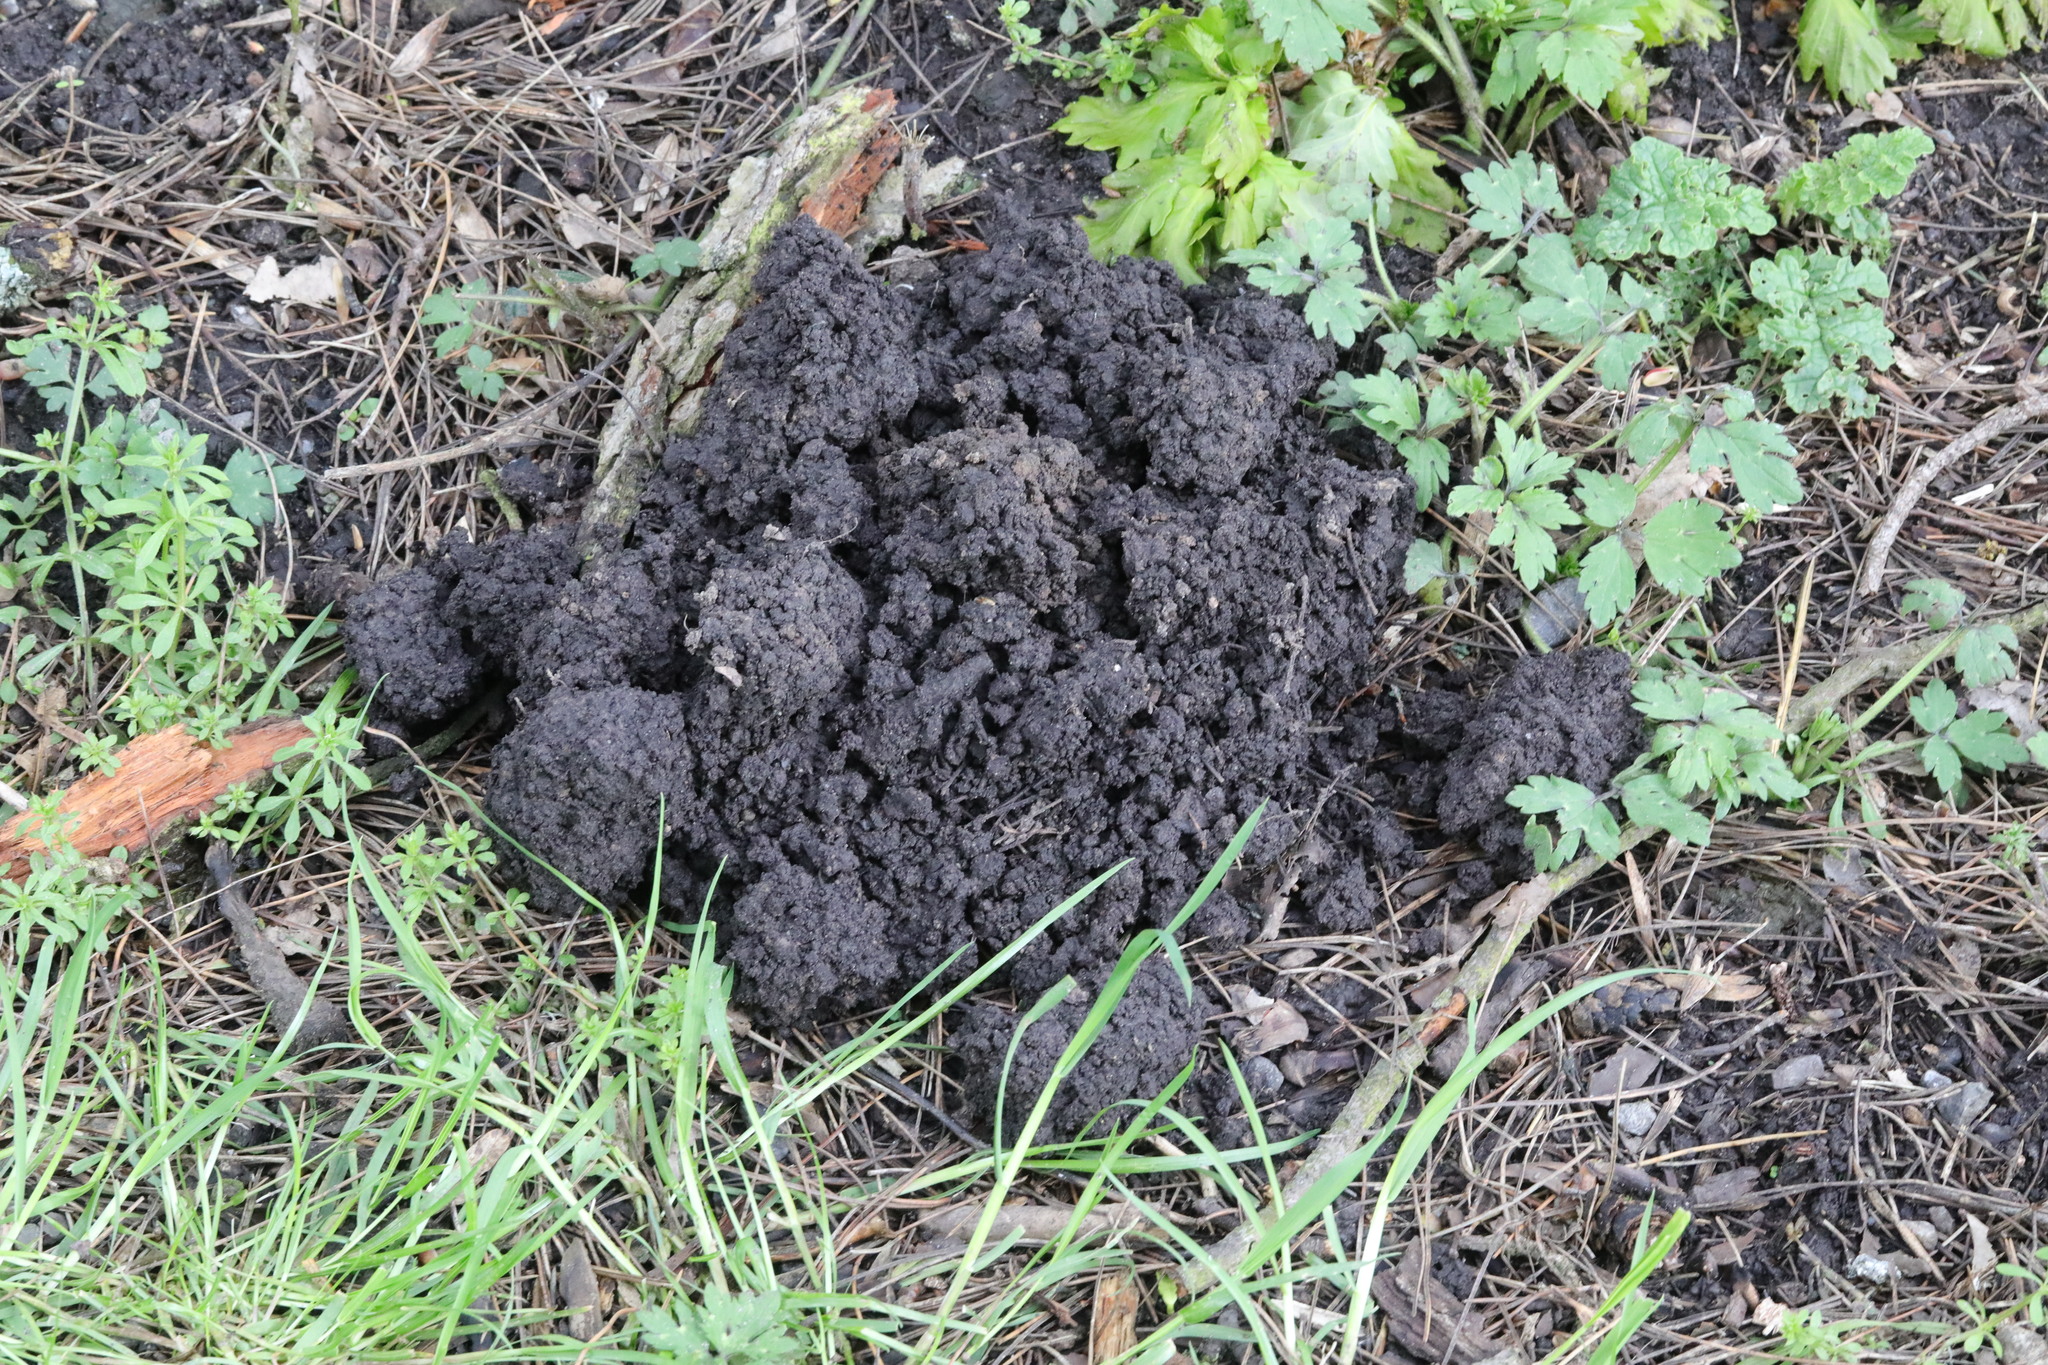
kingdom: Animalia
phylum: Chordata
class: Mammalia
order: Soricomorpha
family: Talpidae
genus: Talpa
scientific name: Talpa europaea
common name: European mole
